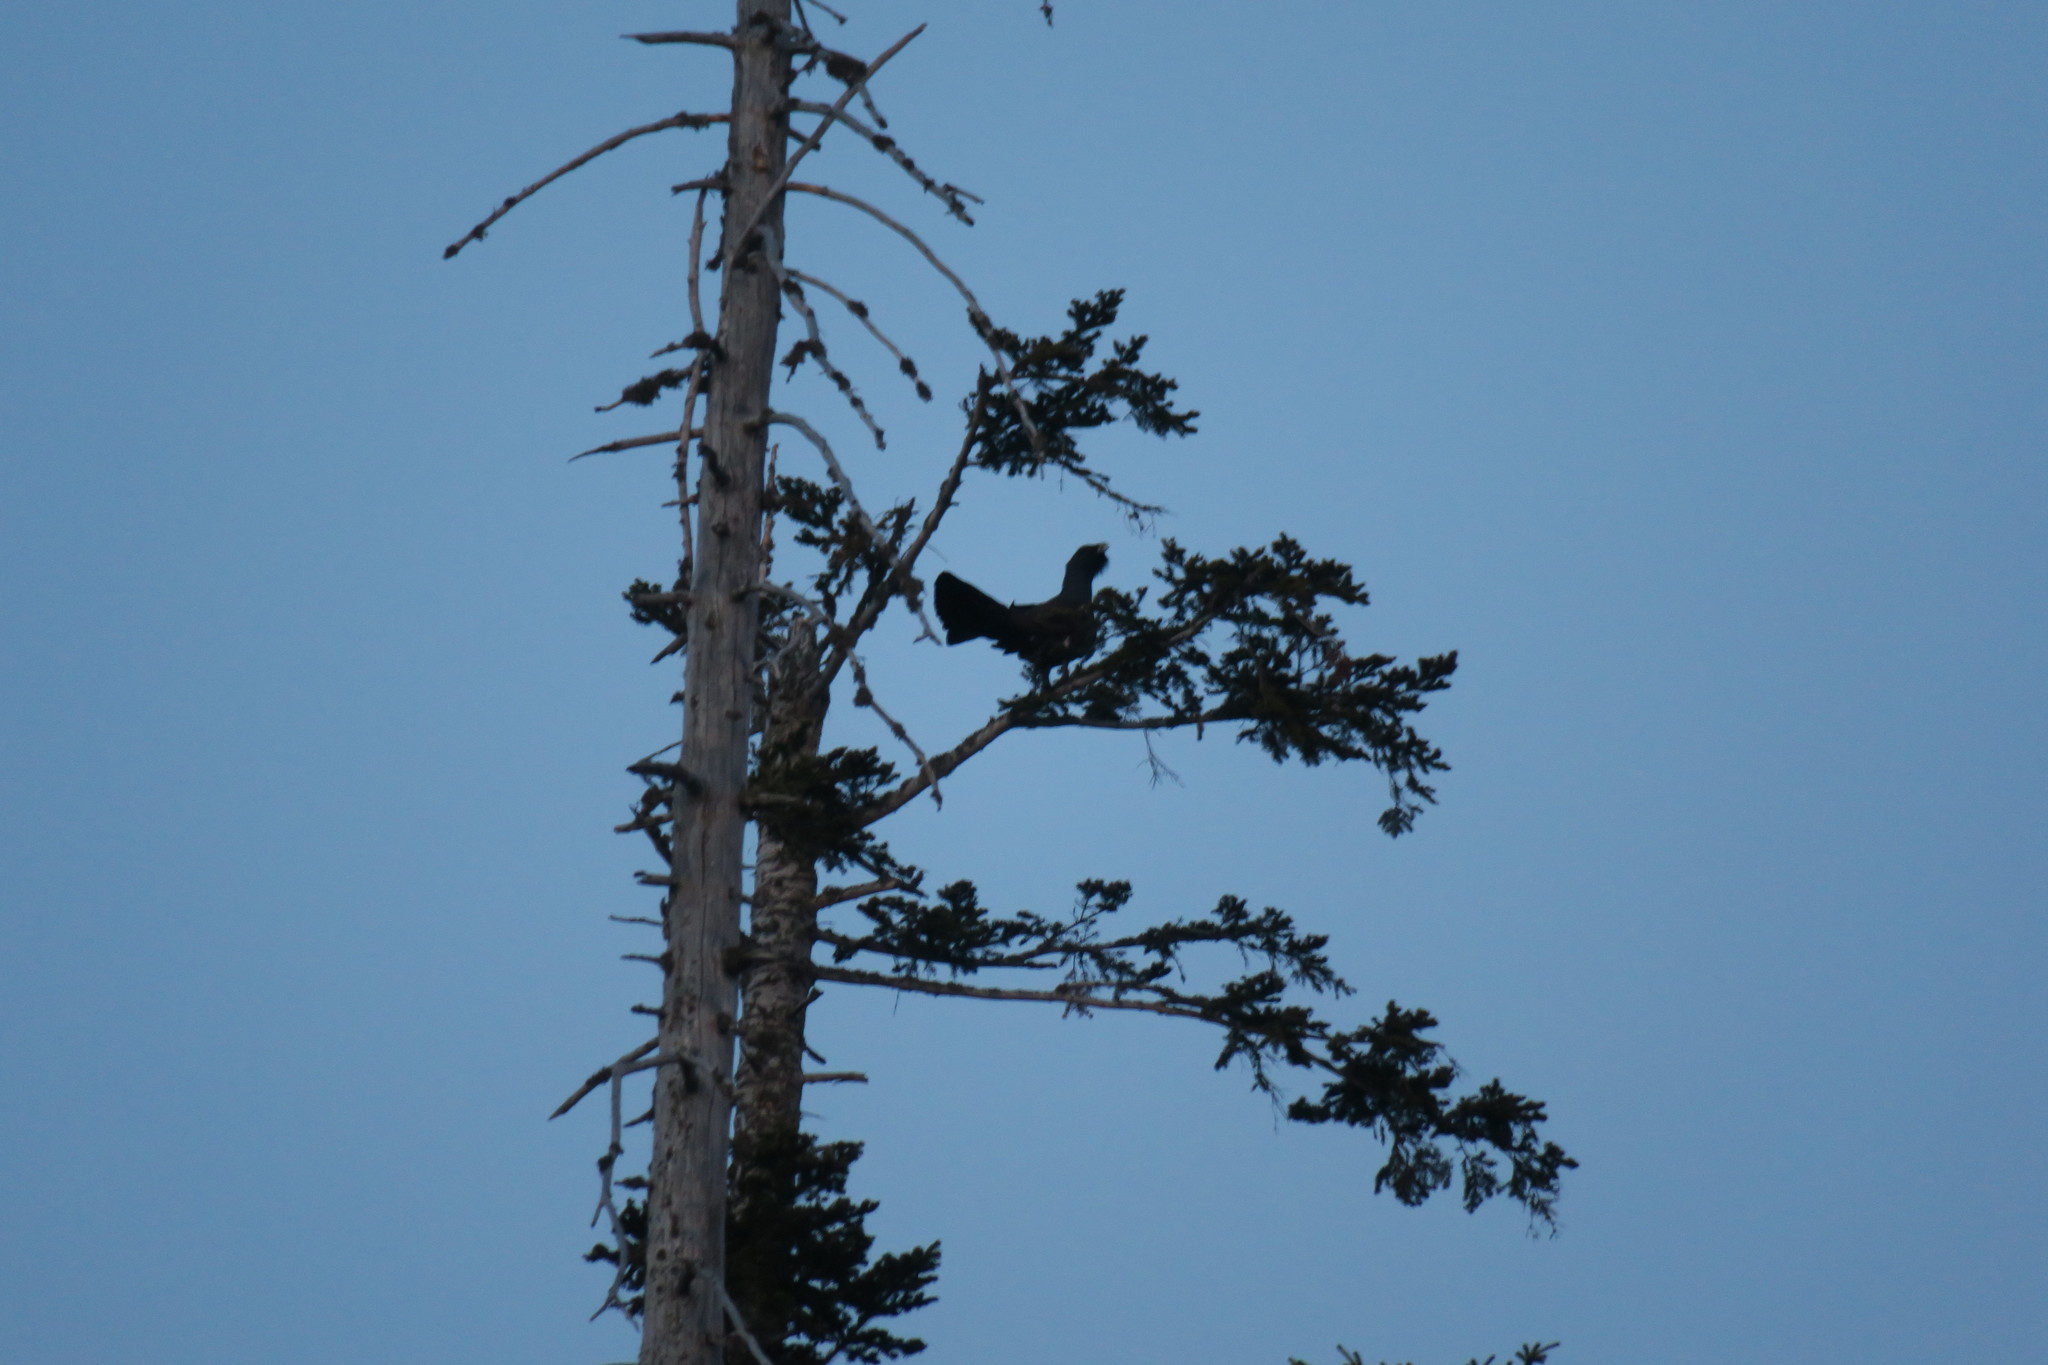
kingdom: Animalia
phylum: Chordata
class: Aves
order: Galliformes
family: Phasianidae
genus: Tetrao
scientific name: Tetrao urogallus
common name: Western capercaillie
